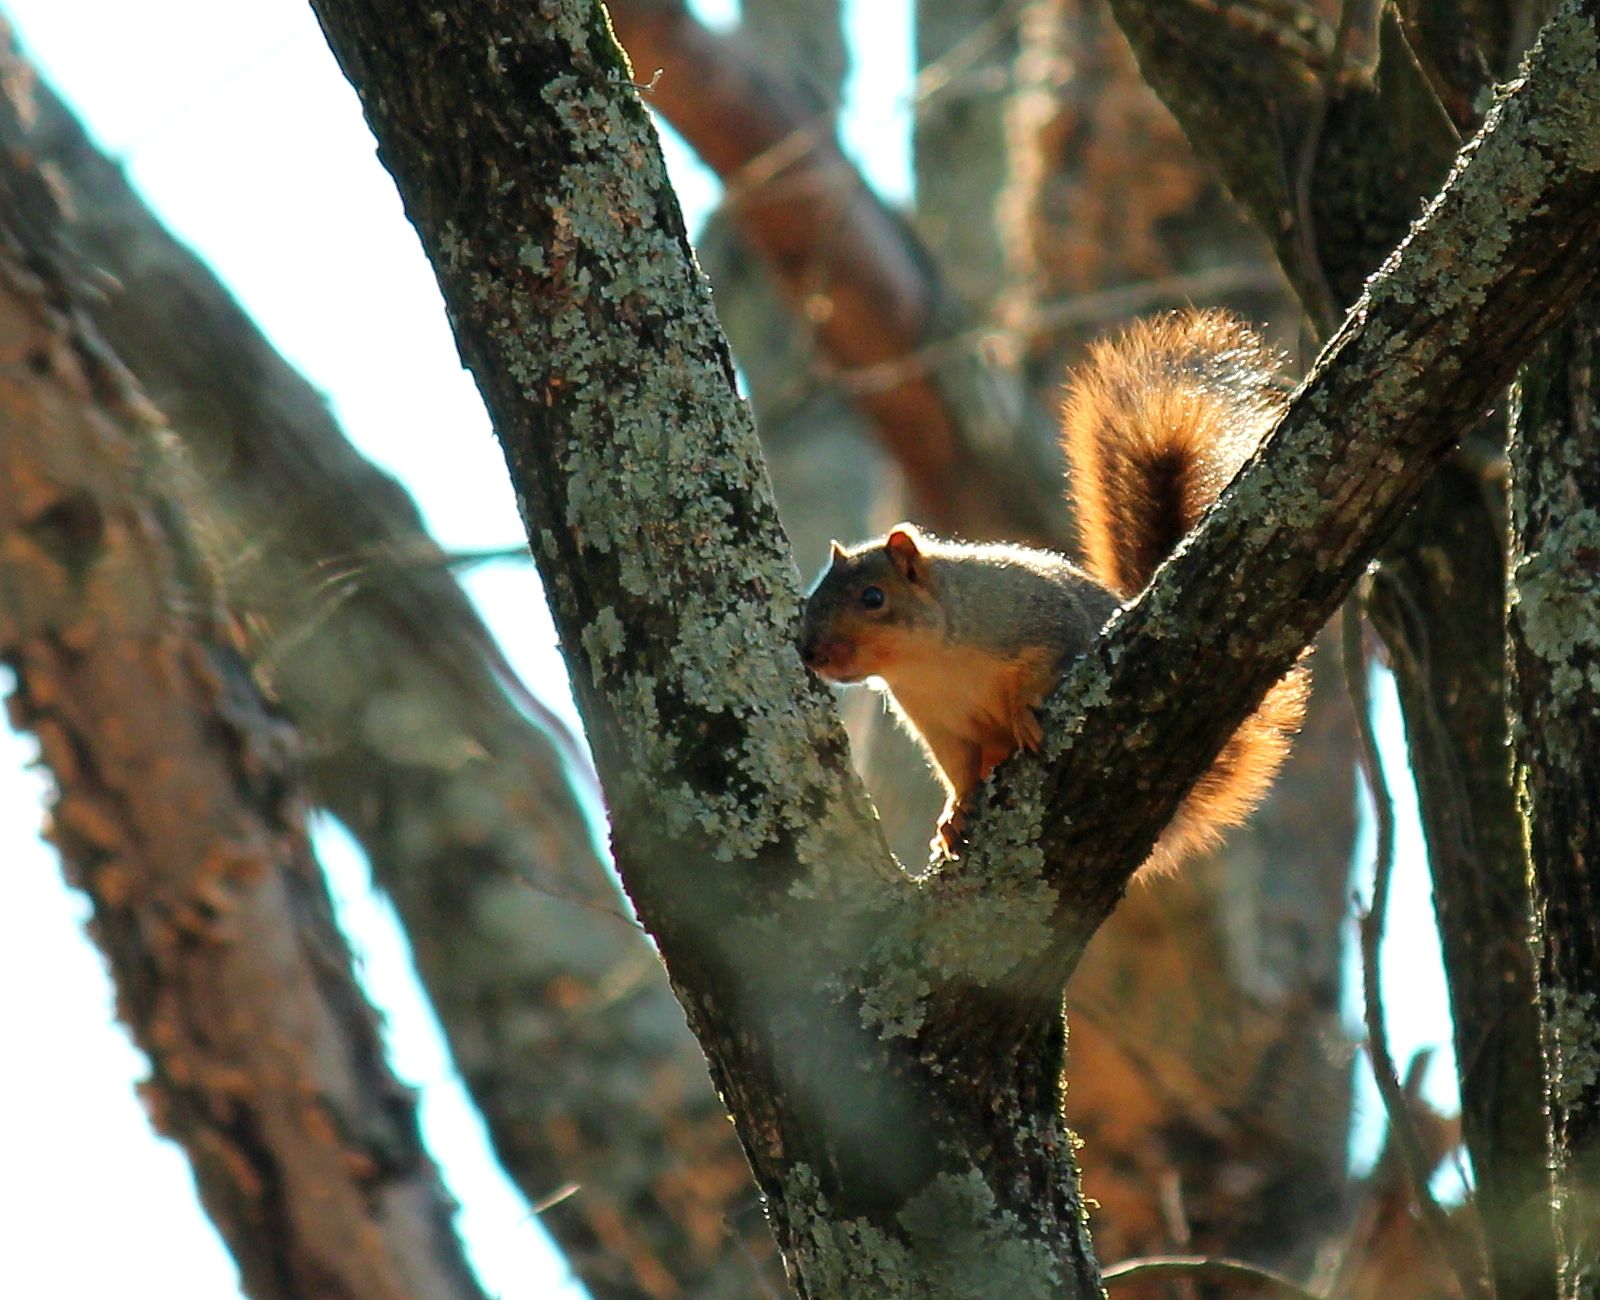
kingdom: Animalia
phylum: Chordata
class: Mammalia
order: Rodentia
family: Sciuridae
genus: Sciurus
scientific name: Sciurus niger
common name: Fox squirrel
